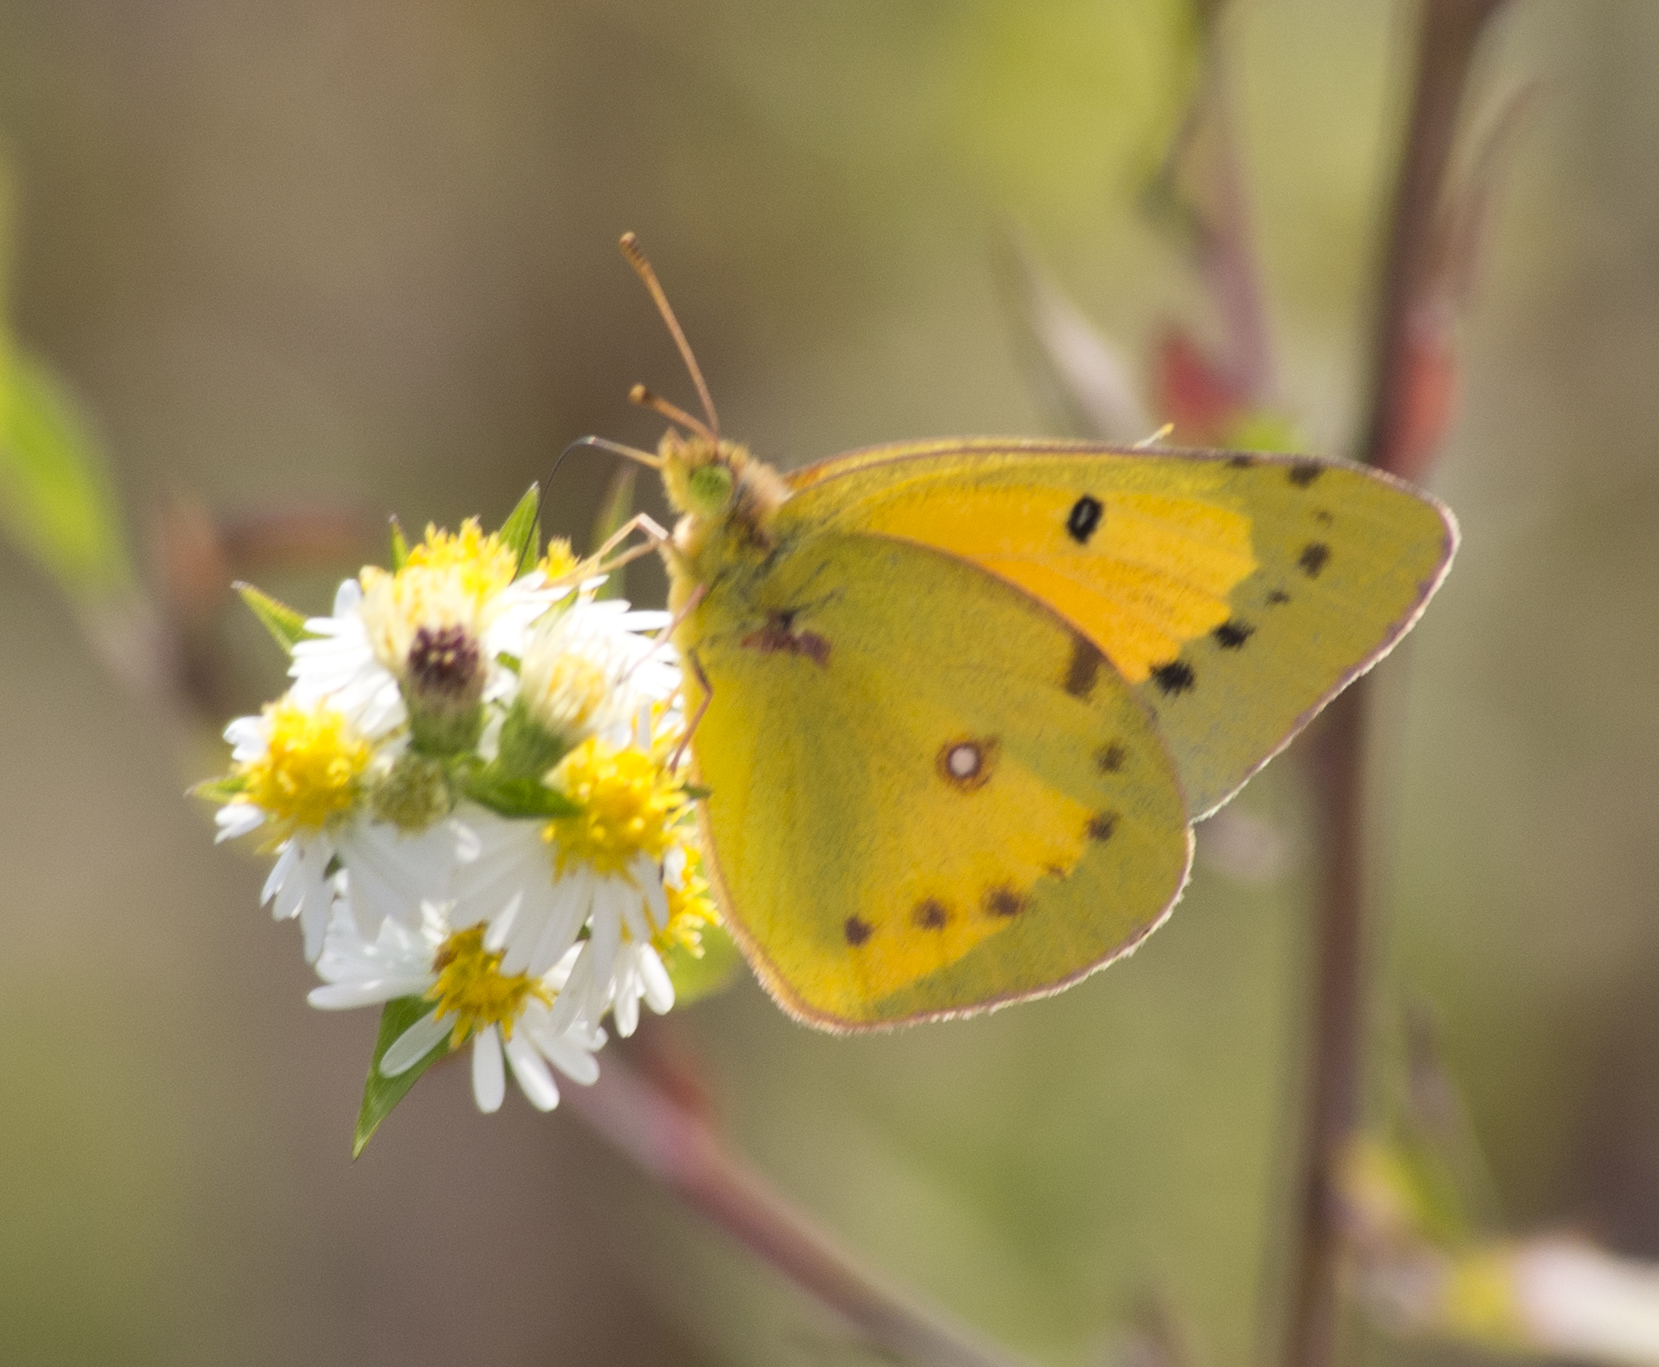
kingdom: Animalia
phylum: Arthropoda
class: Insecta
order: Lepidoptera
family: Pieridae
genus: Colias
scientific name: Colias eurytheme
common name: Alfalfa butterfly
